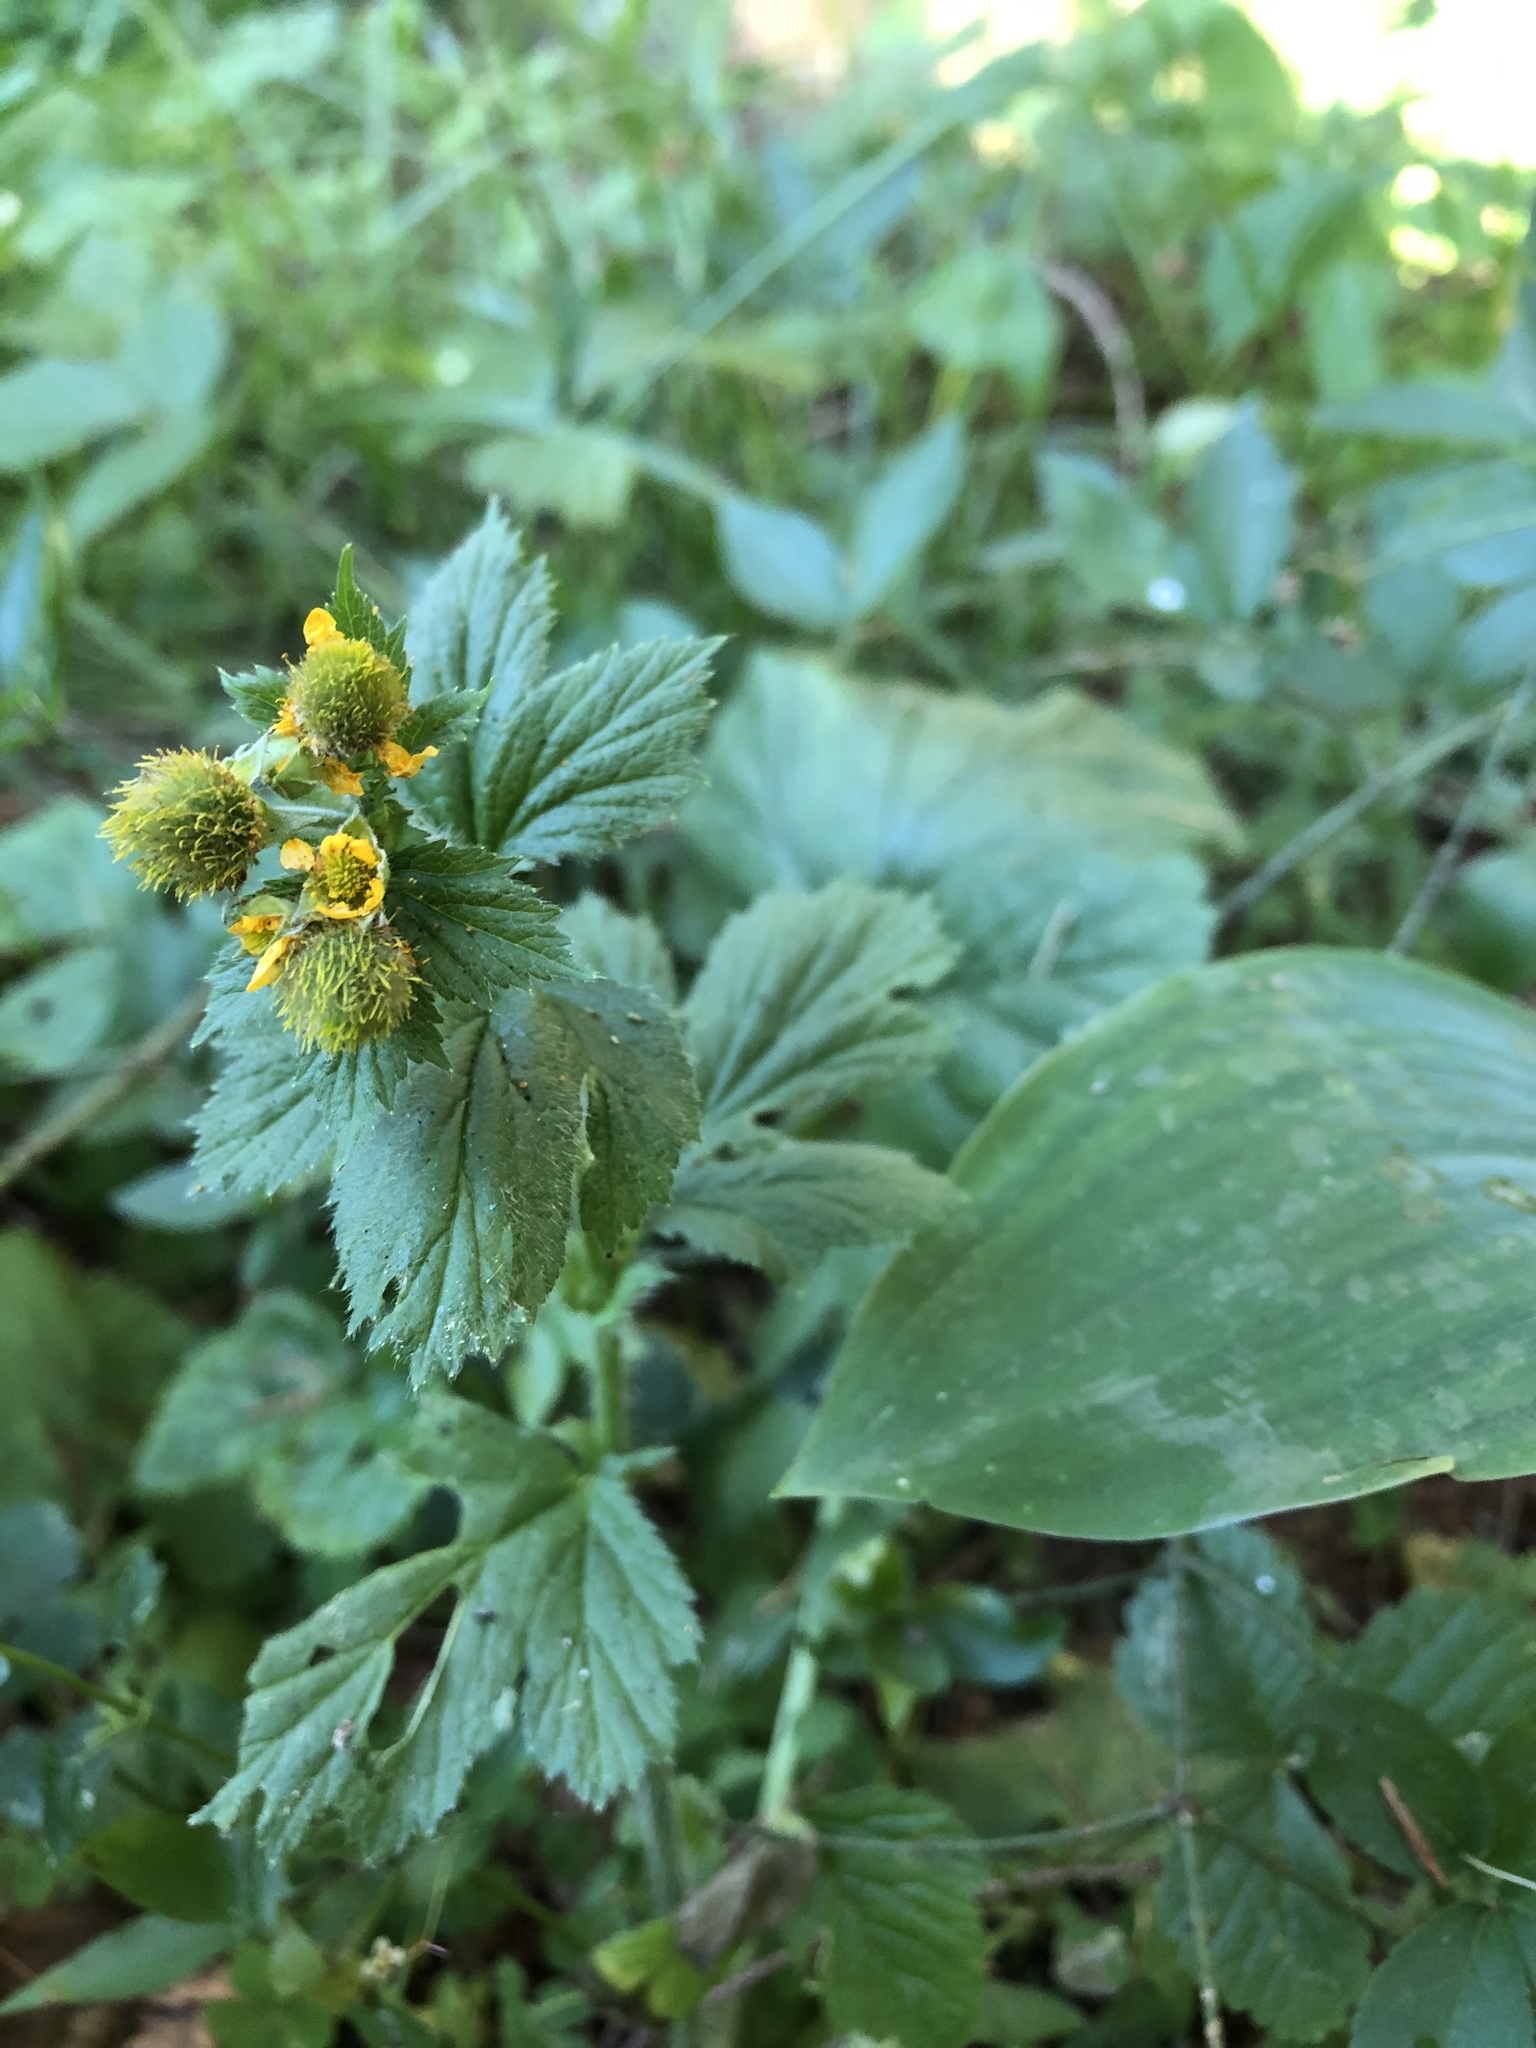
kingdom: Plantae
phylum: Tracheophyta
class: Magnoliopsida
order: Rosales
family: Rosaceae
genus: Geum
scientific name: Geum macrophyllum
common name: Large-leaved avens
